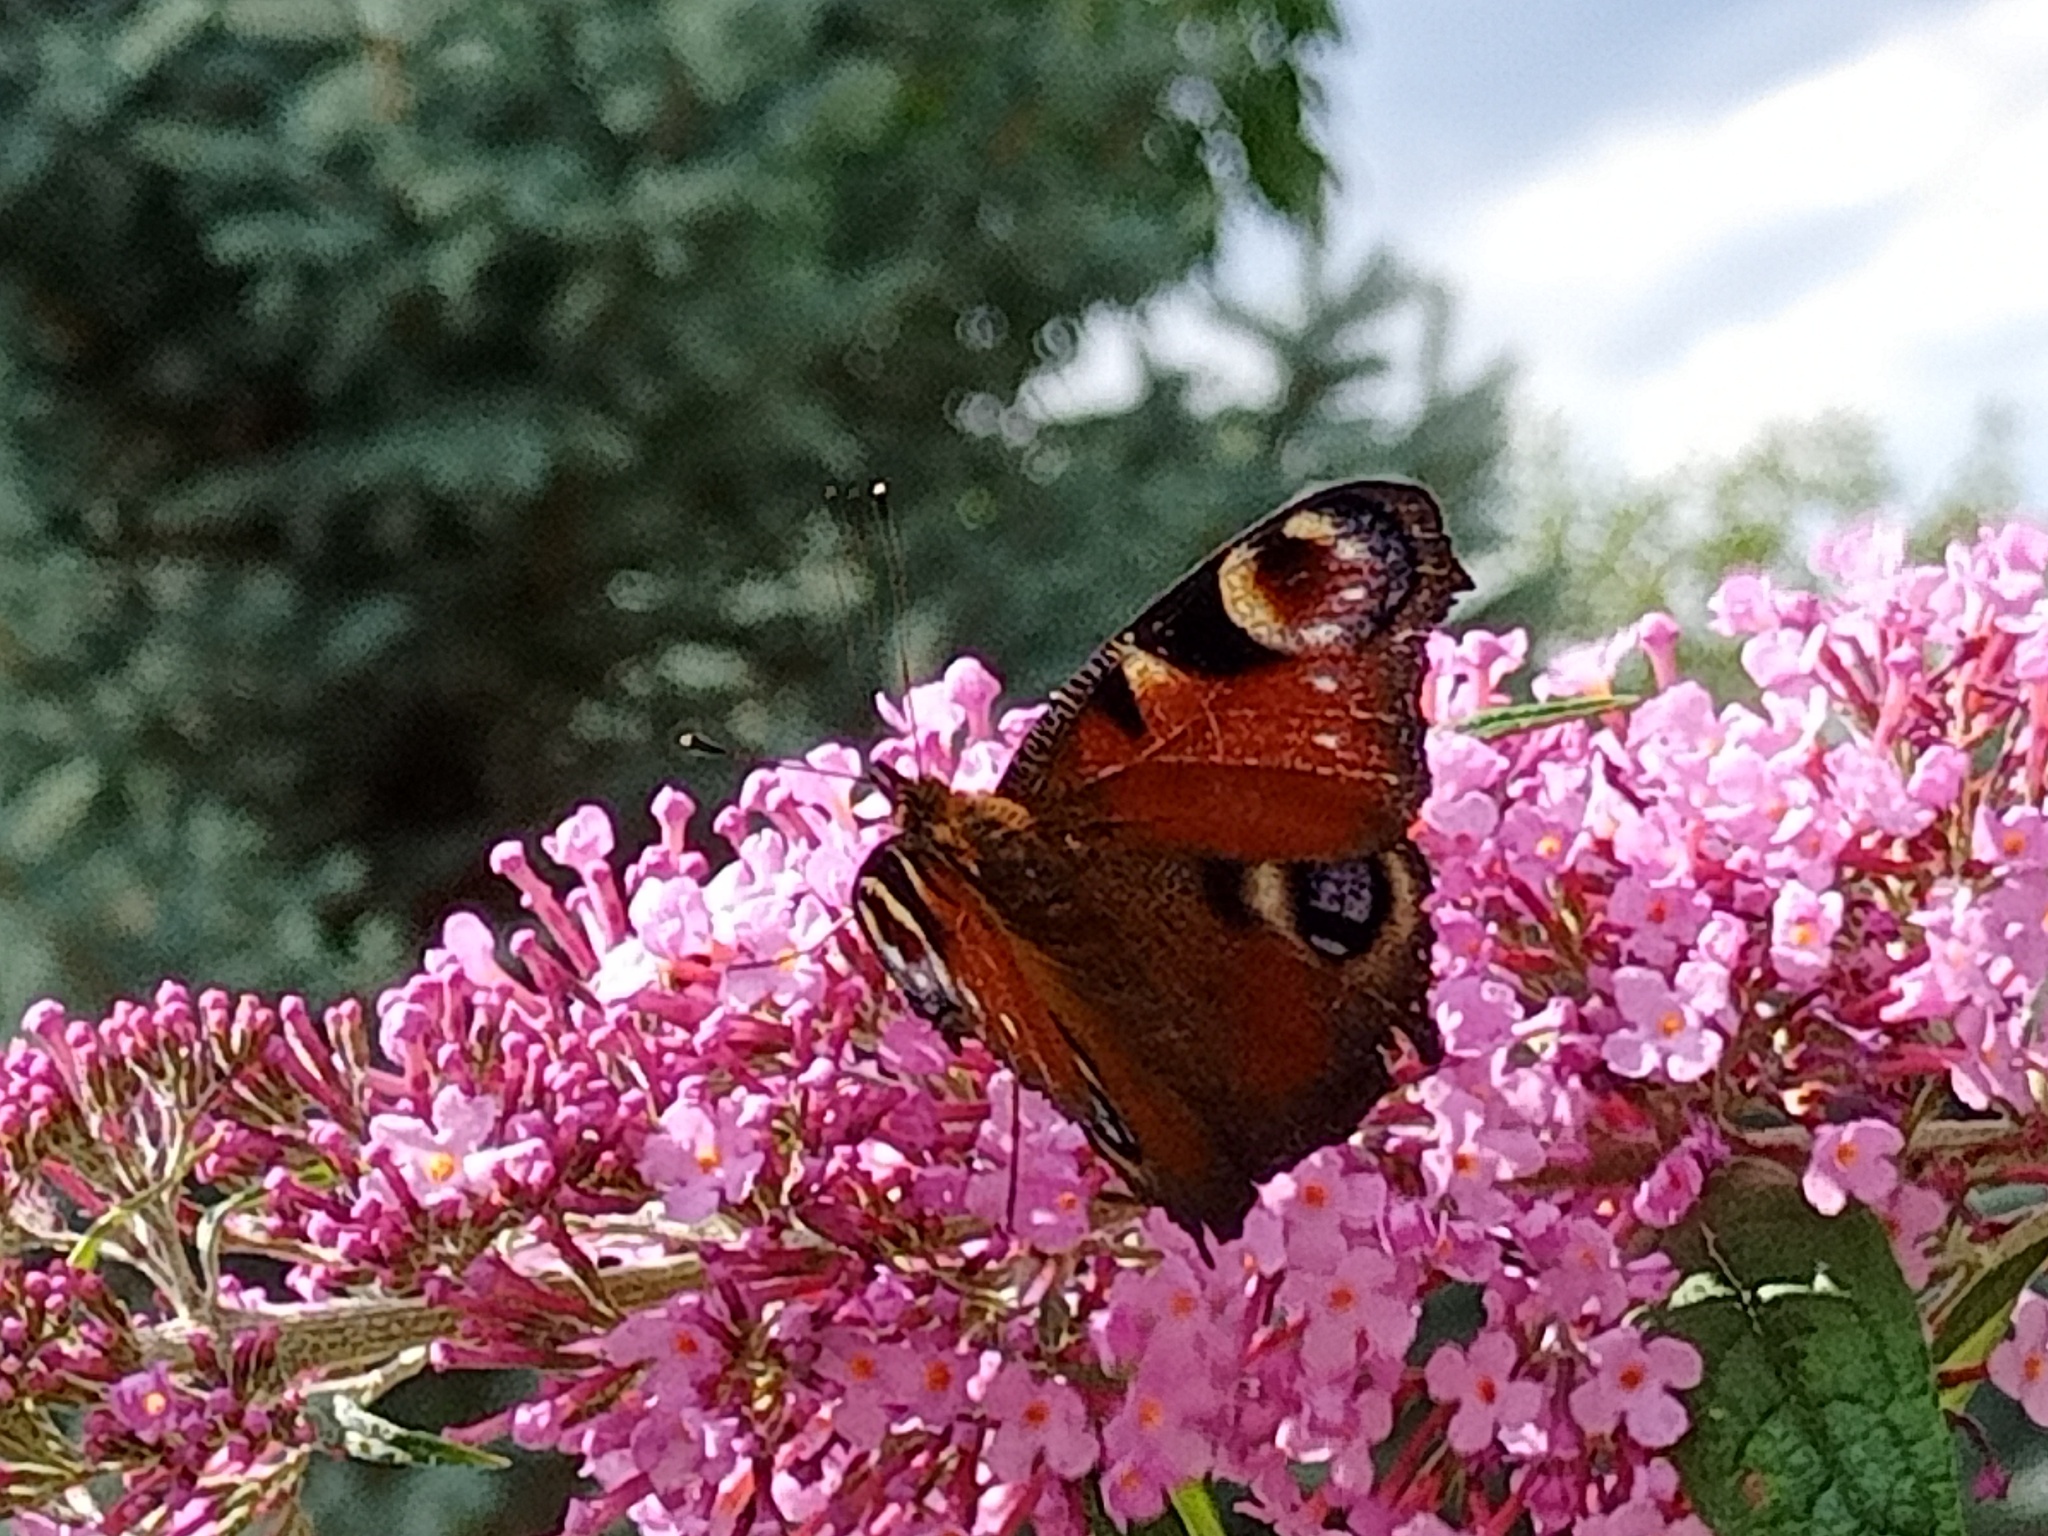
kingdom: Animalia
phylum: Arthropoda
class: Insecta
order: Lepidoptera
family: Nymphalidae
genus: Aglais
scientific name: Aglais io
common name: Peacock
